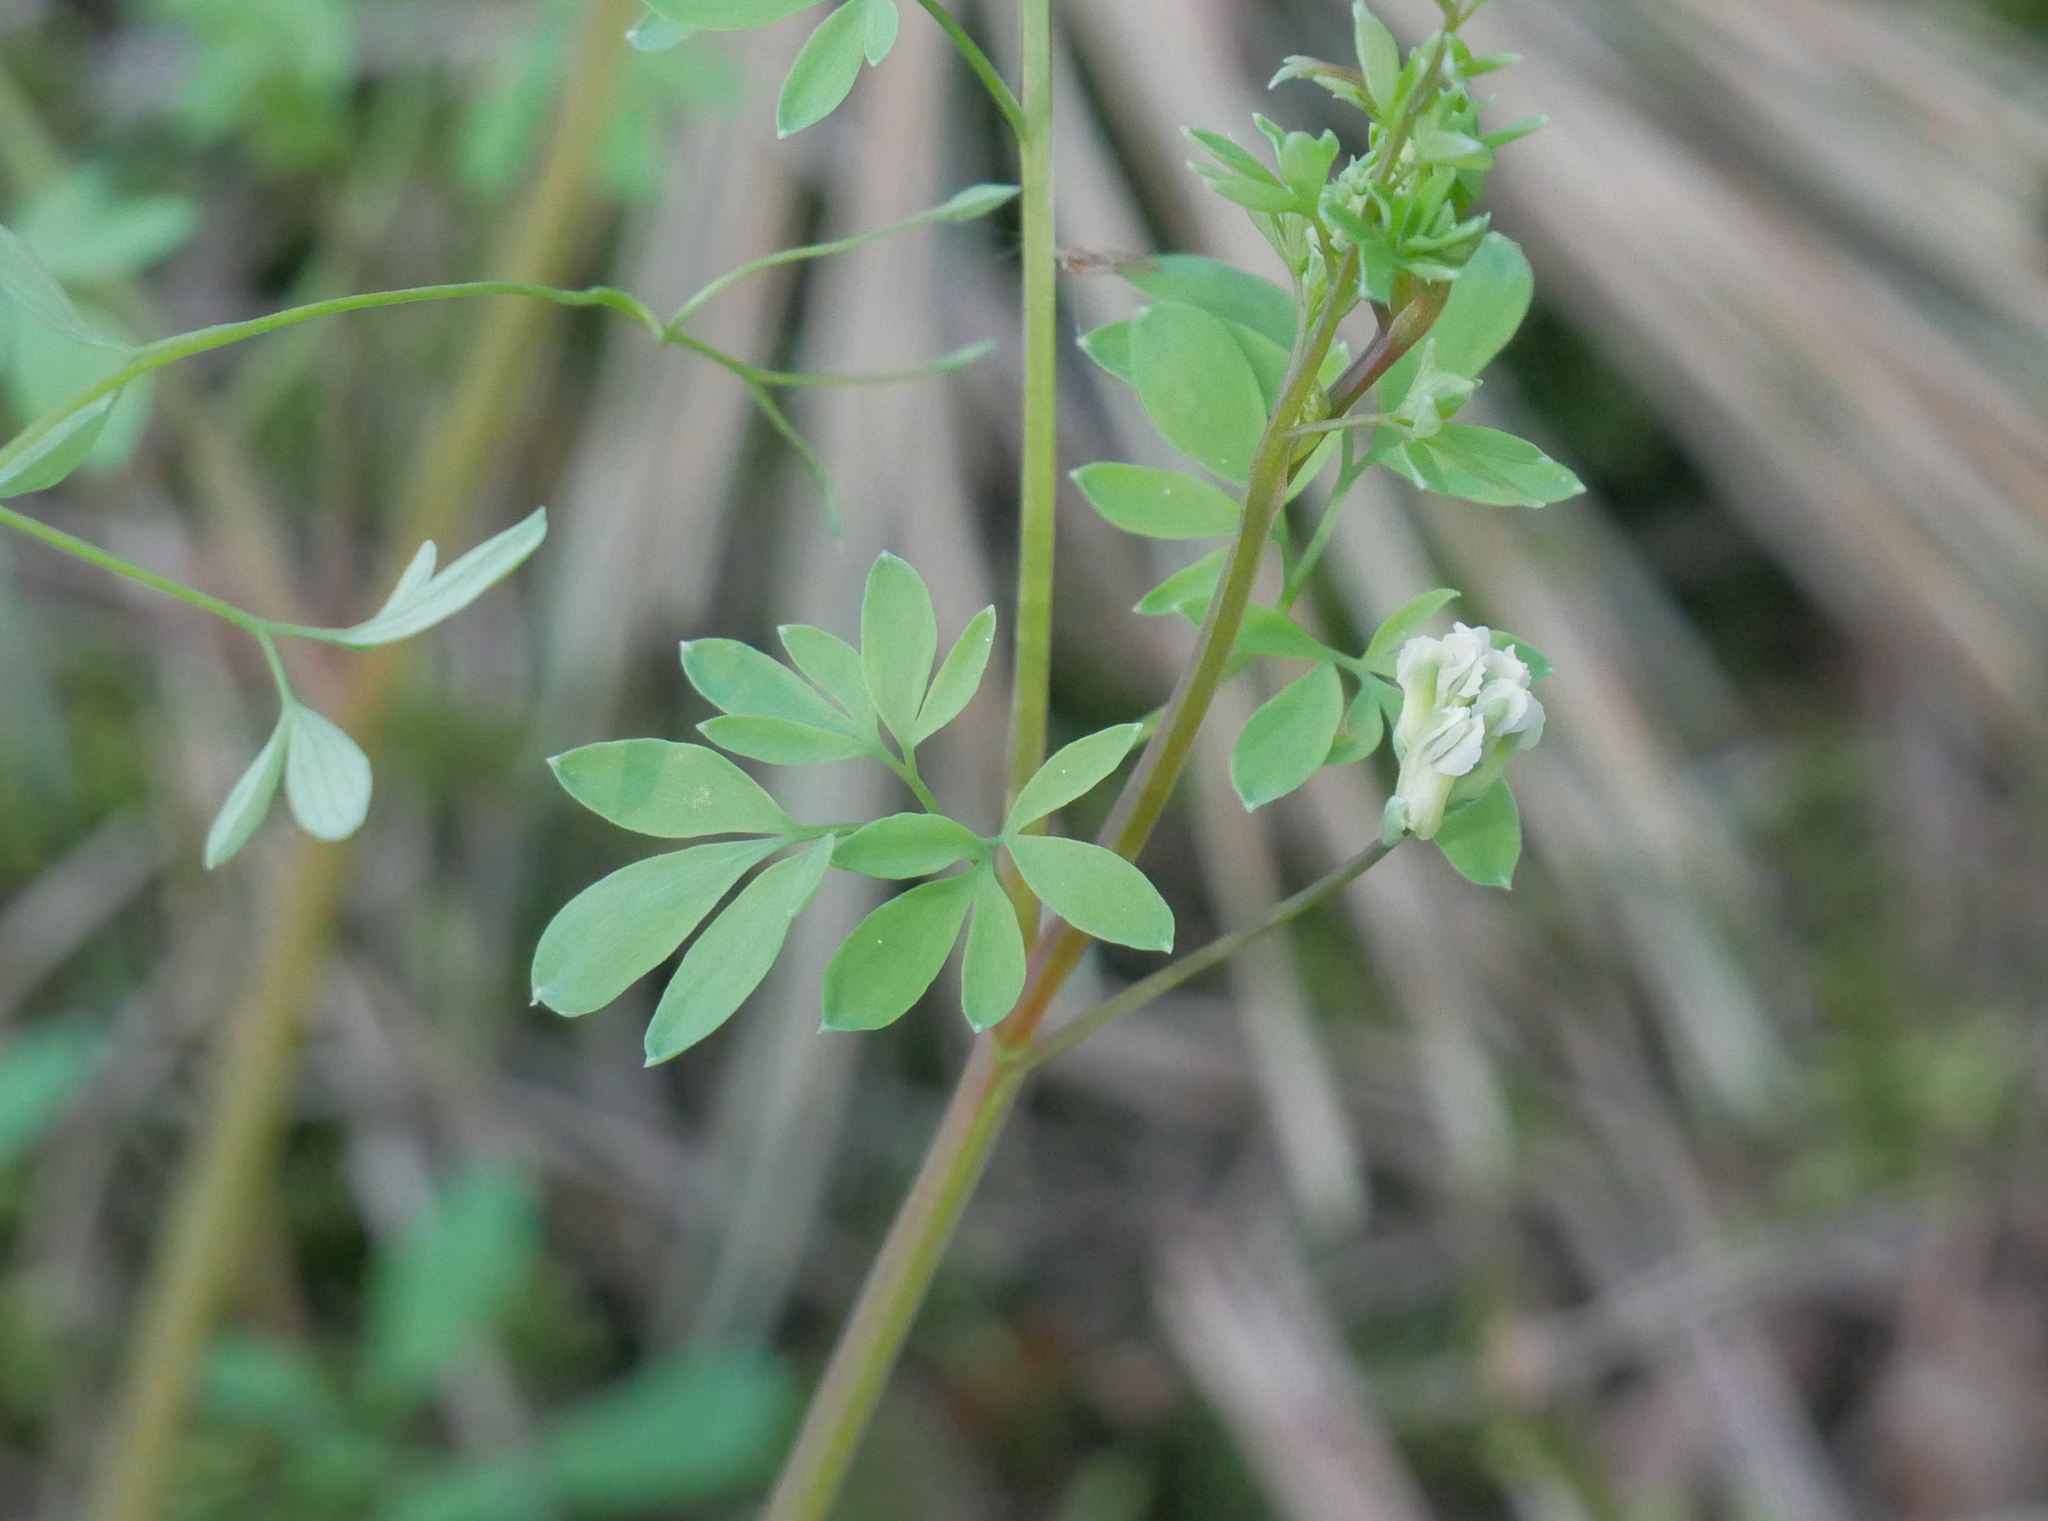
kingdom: Plantae
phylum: Tracheophyta
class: Magnoliopsida
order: Ranunculales
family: Papaveraceae
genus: Ceratocapnos
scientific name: Ceratocapnos claviculata
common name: Climbing corydalis
